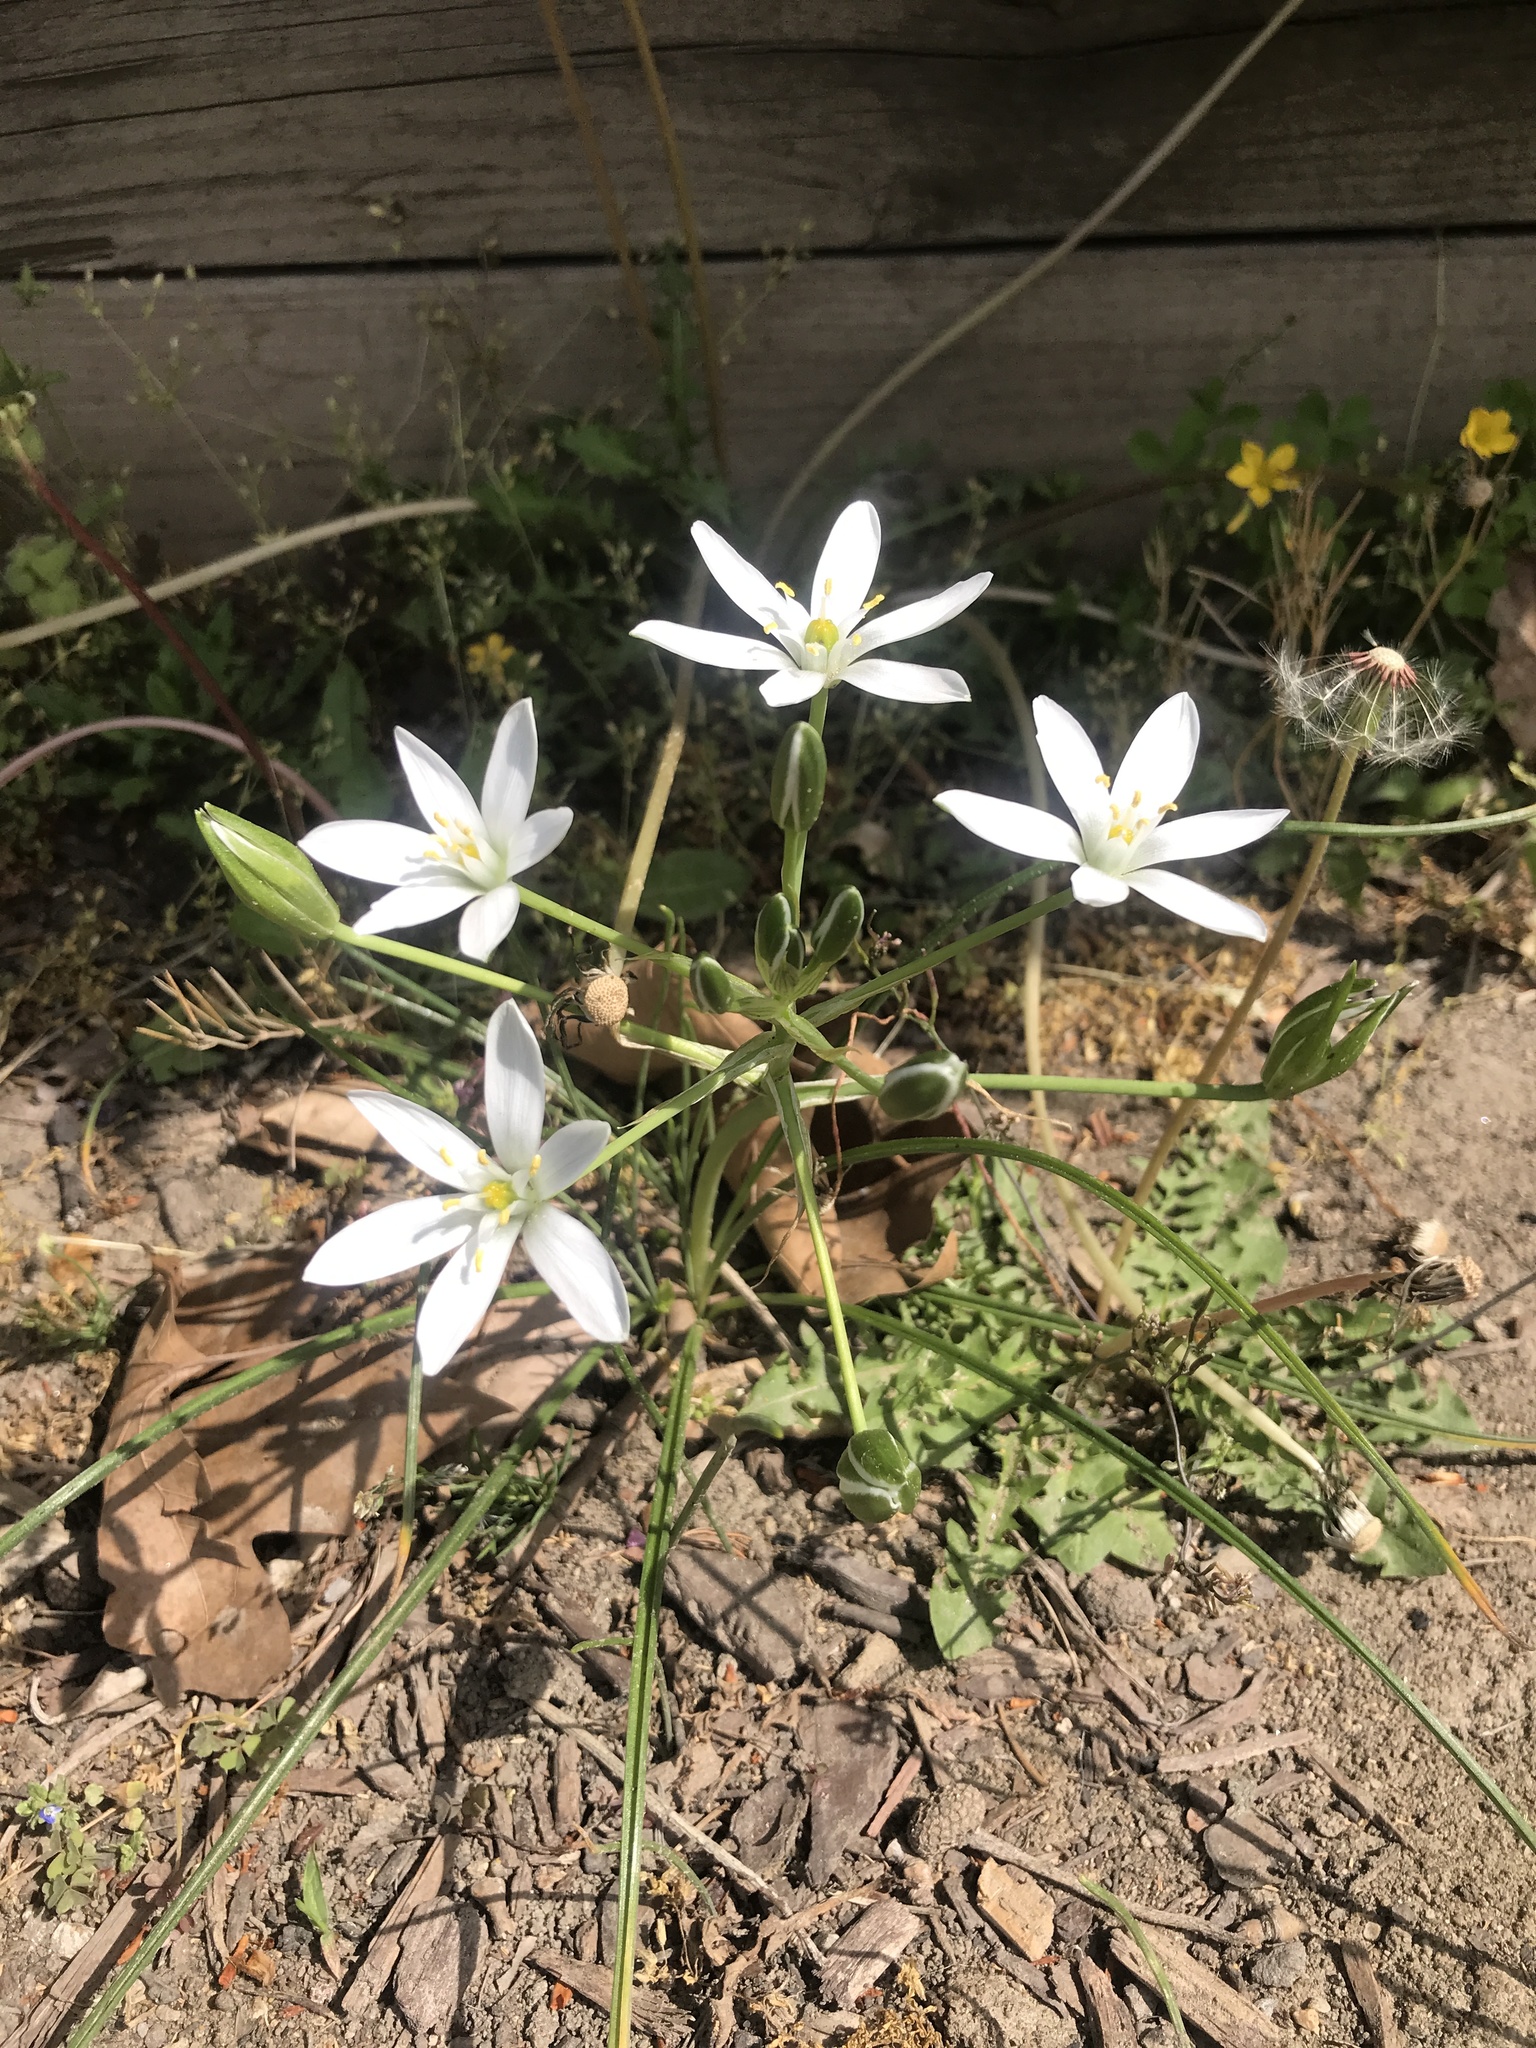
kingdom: Plantae
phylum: Tracheophyta
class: Liliopsida
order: Asparagales
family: Asparagaceae
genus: Ornithogalum
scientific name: Ornithogalum umbellatum
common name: Garden star-of-bethlehem
